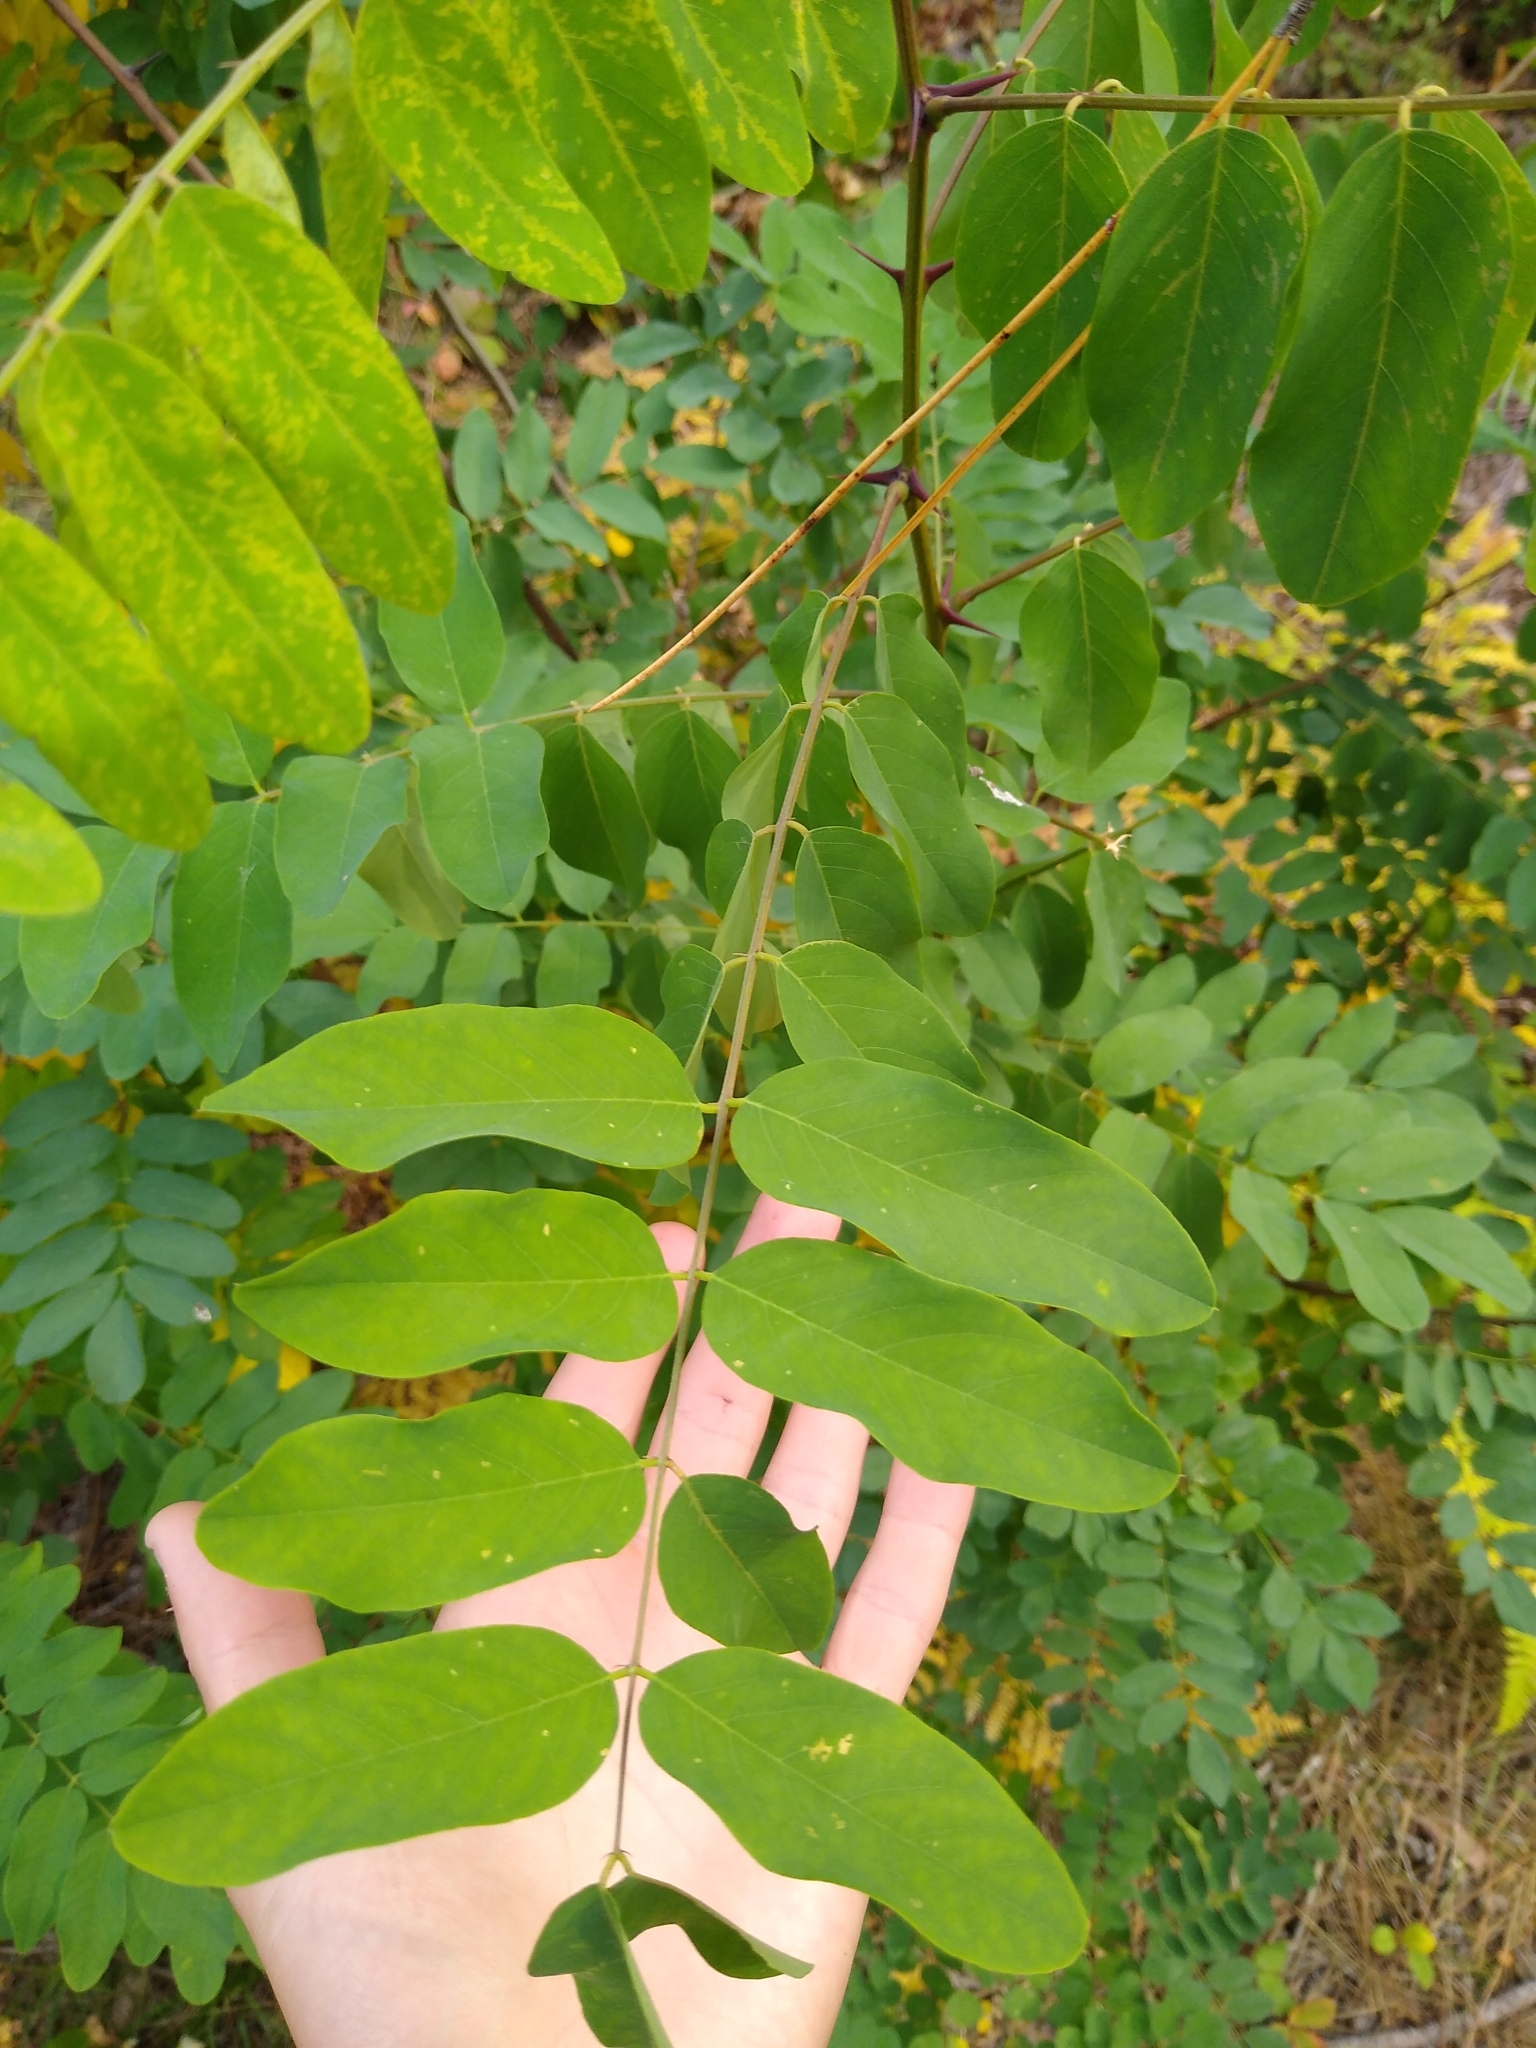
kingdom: Plantae
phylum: Tracheophyta
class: Magnoliopsida
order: Fabales
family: Fabaceae
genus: Robinia
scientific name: Robinia pseudoacacia
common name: Black locust
